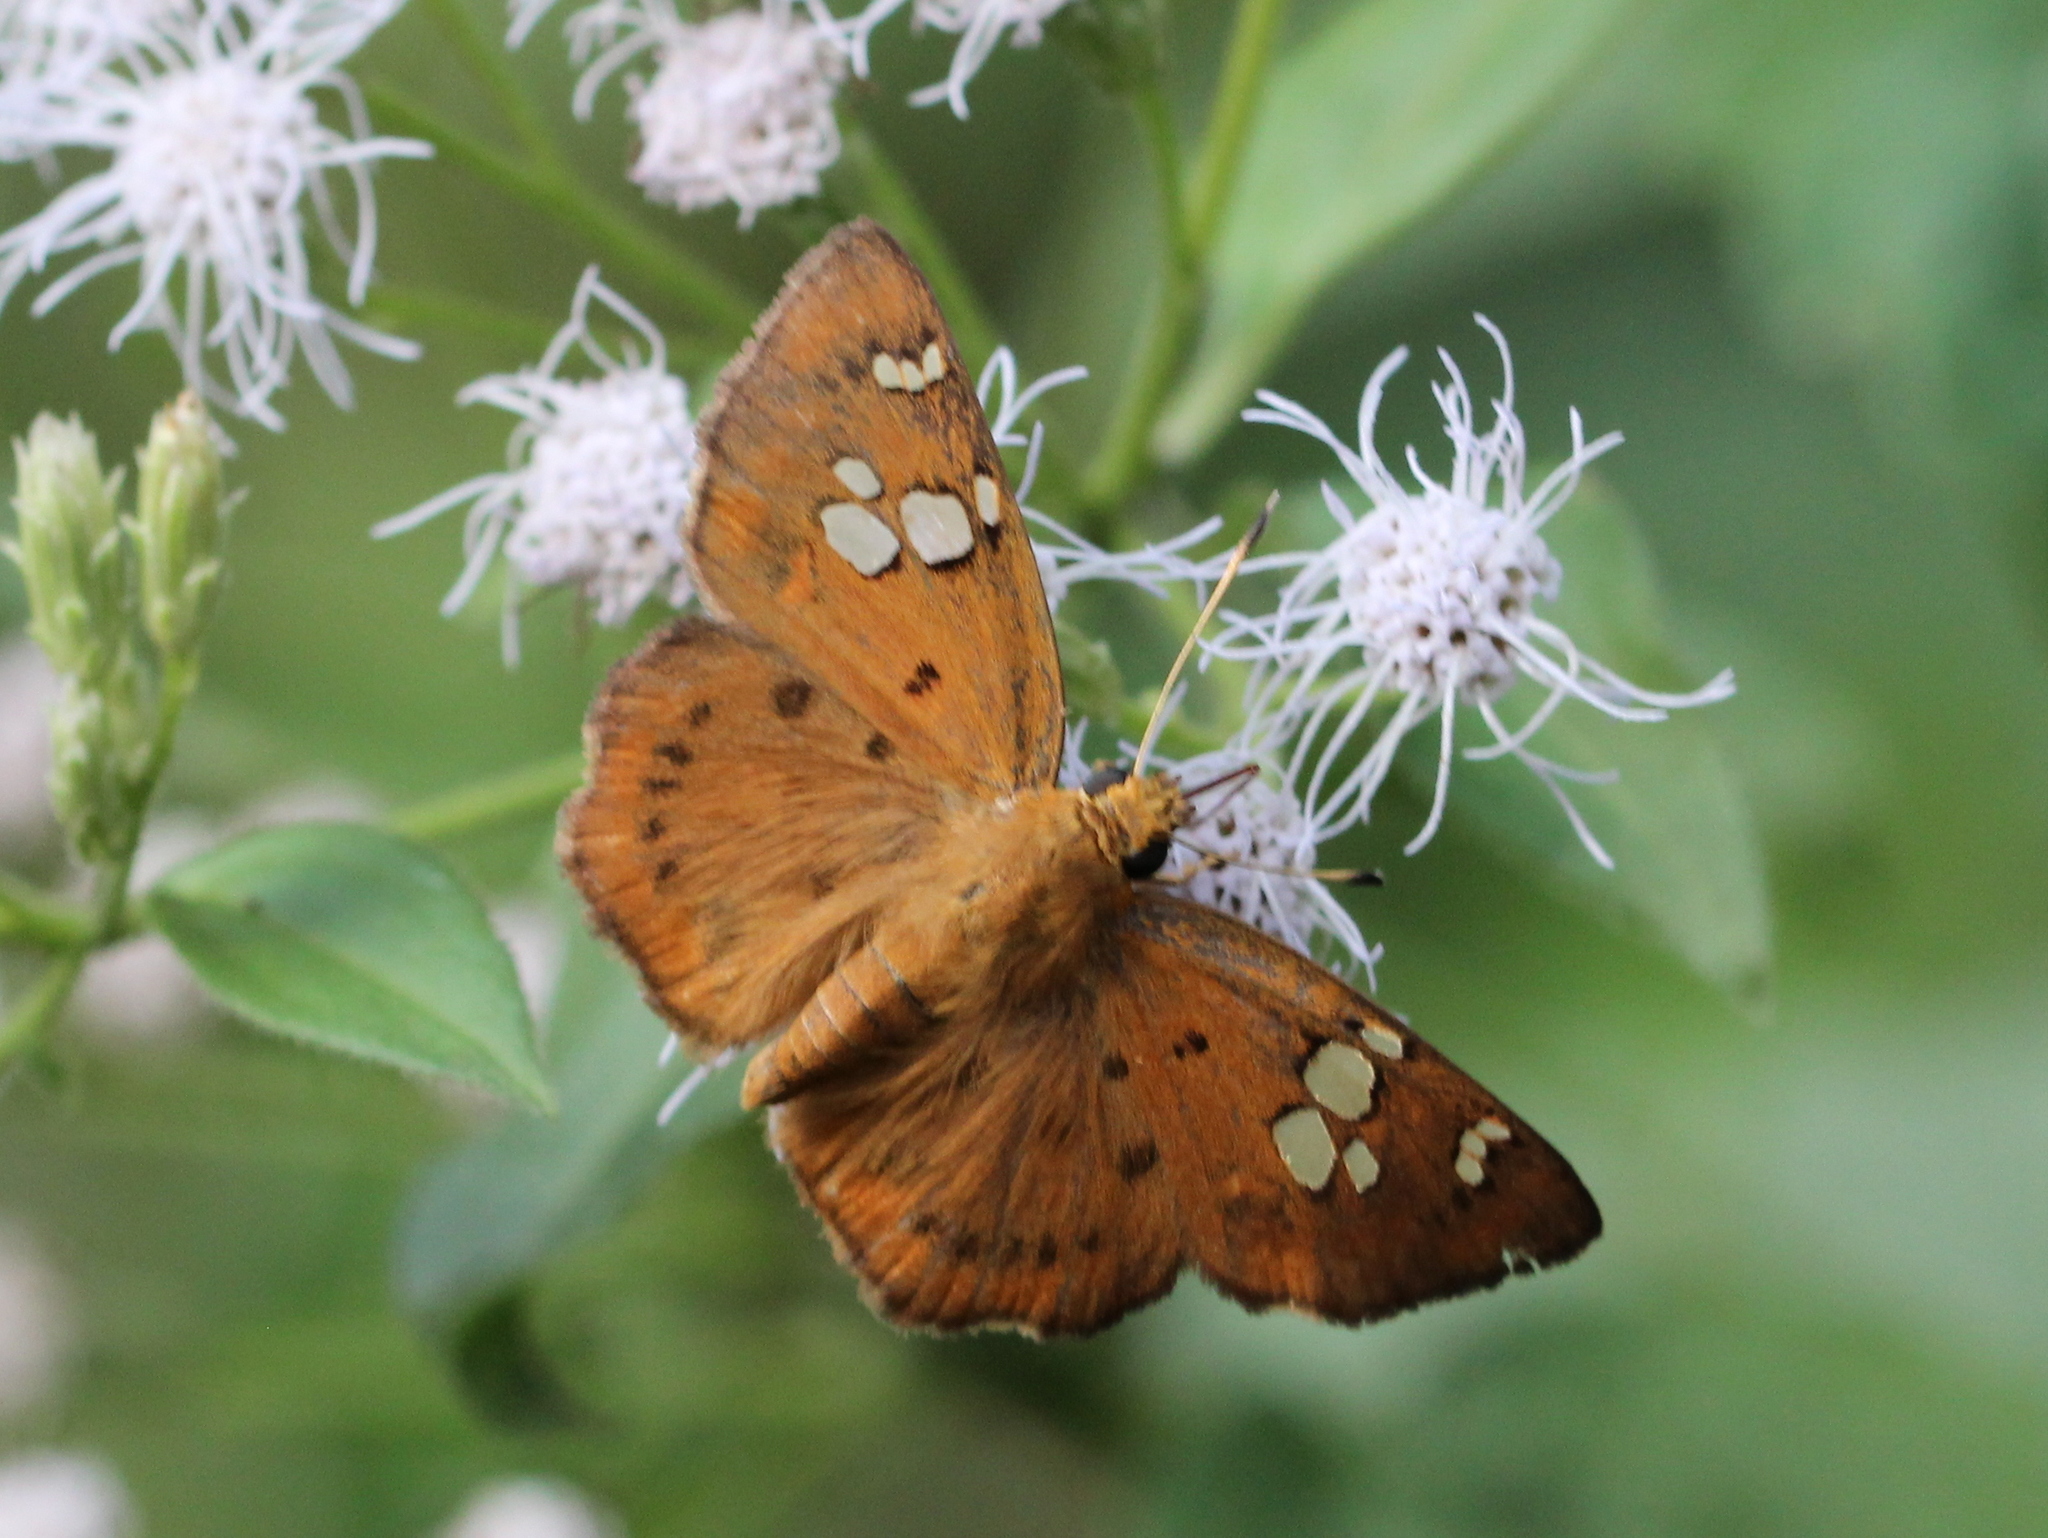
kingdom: Animalia
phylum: Arthropoda
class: Insecta
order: Lepidoptera
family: Hesperiidae
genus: Coladenia
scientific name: Coladenia
